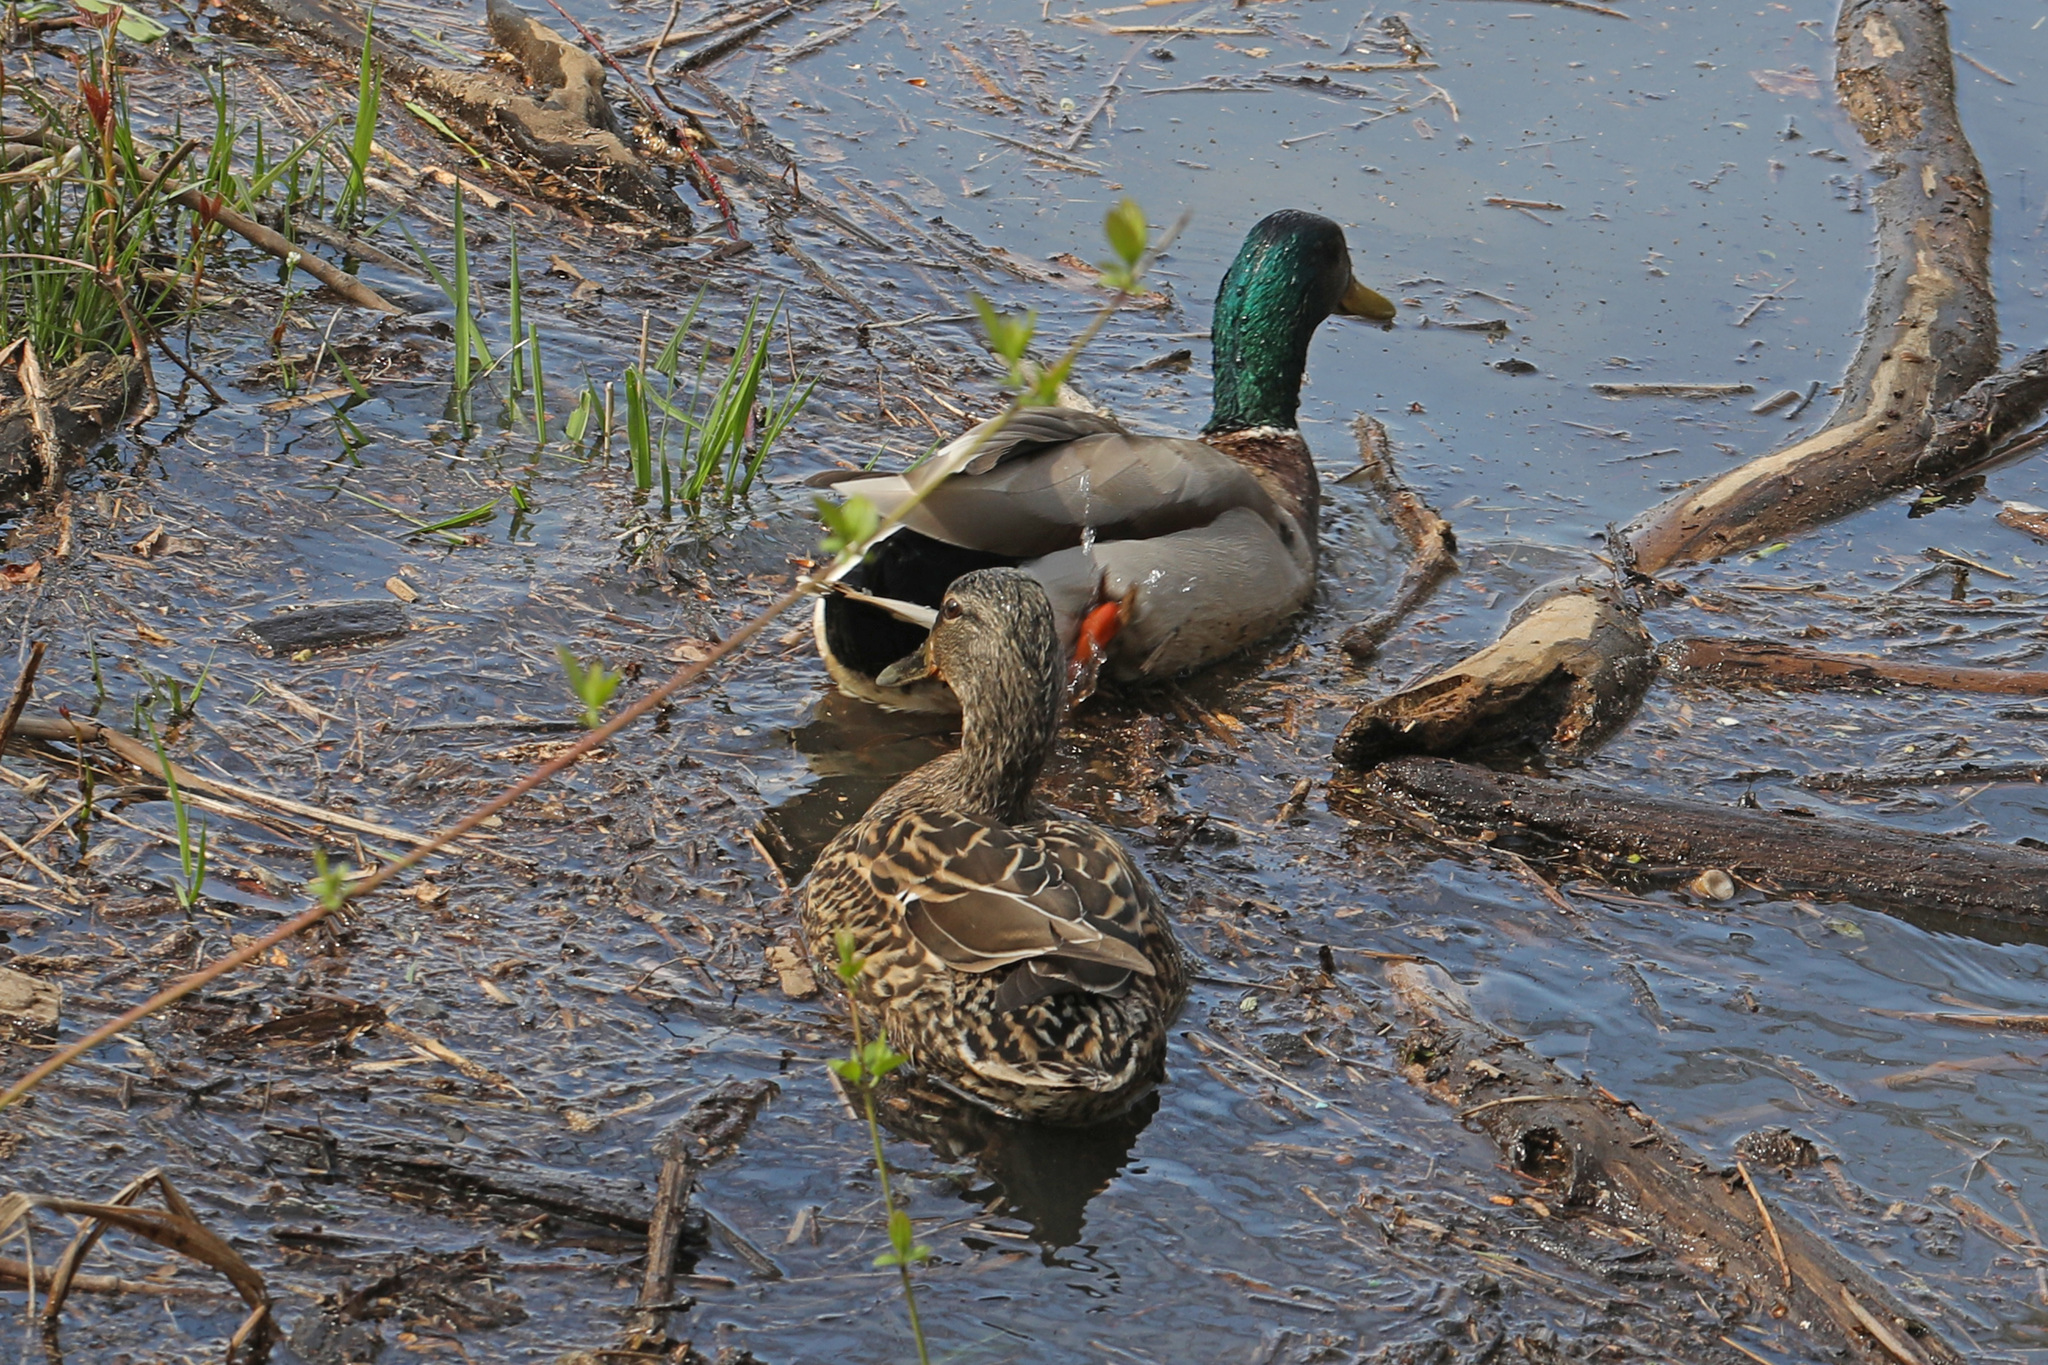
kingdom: Animalia
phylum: Chordata
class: Aves
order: Anseriformes
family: Anatidae
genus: Anas
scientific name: Anas platyrhynchos
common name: Mallard
